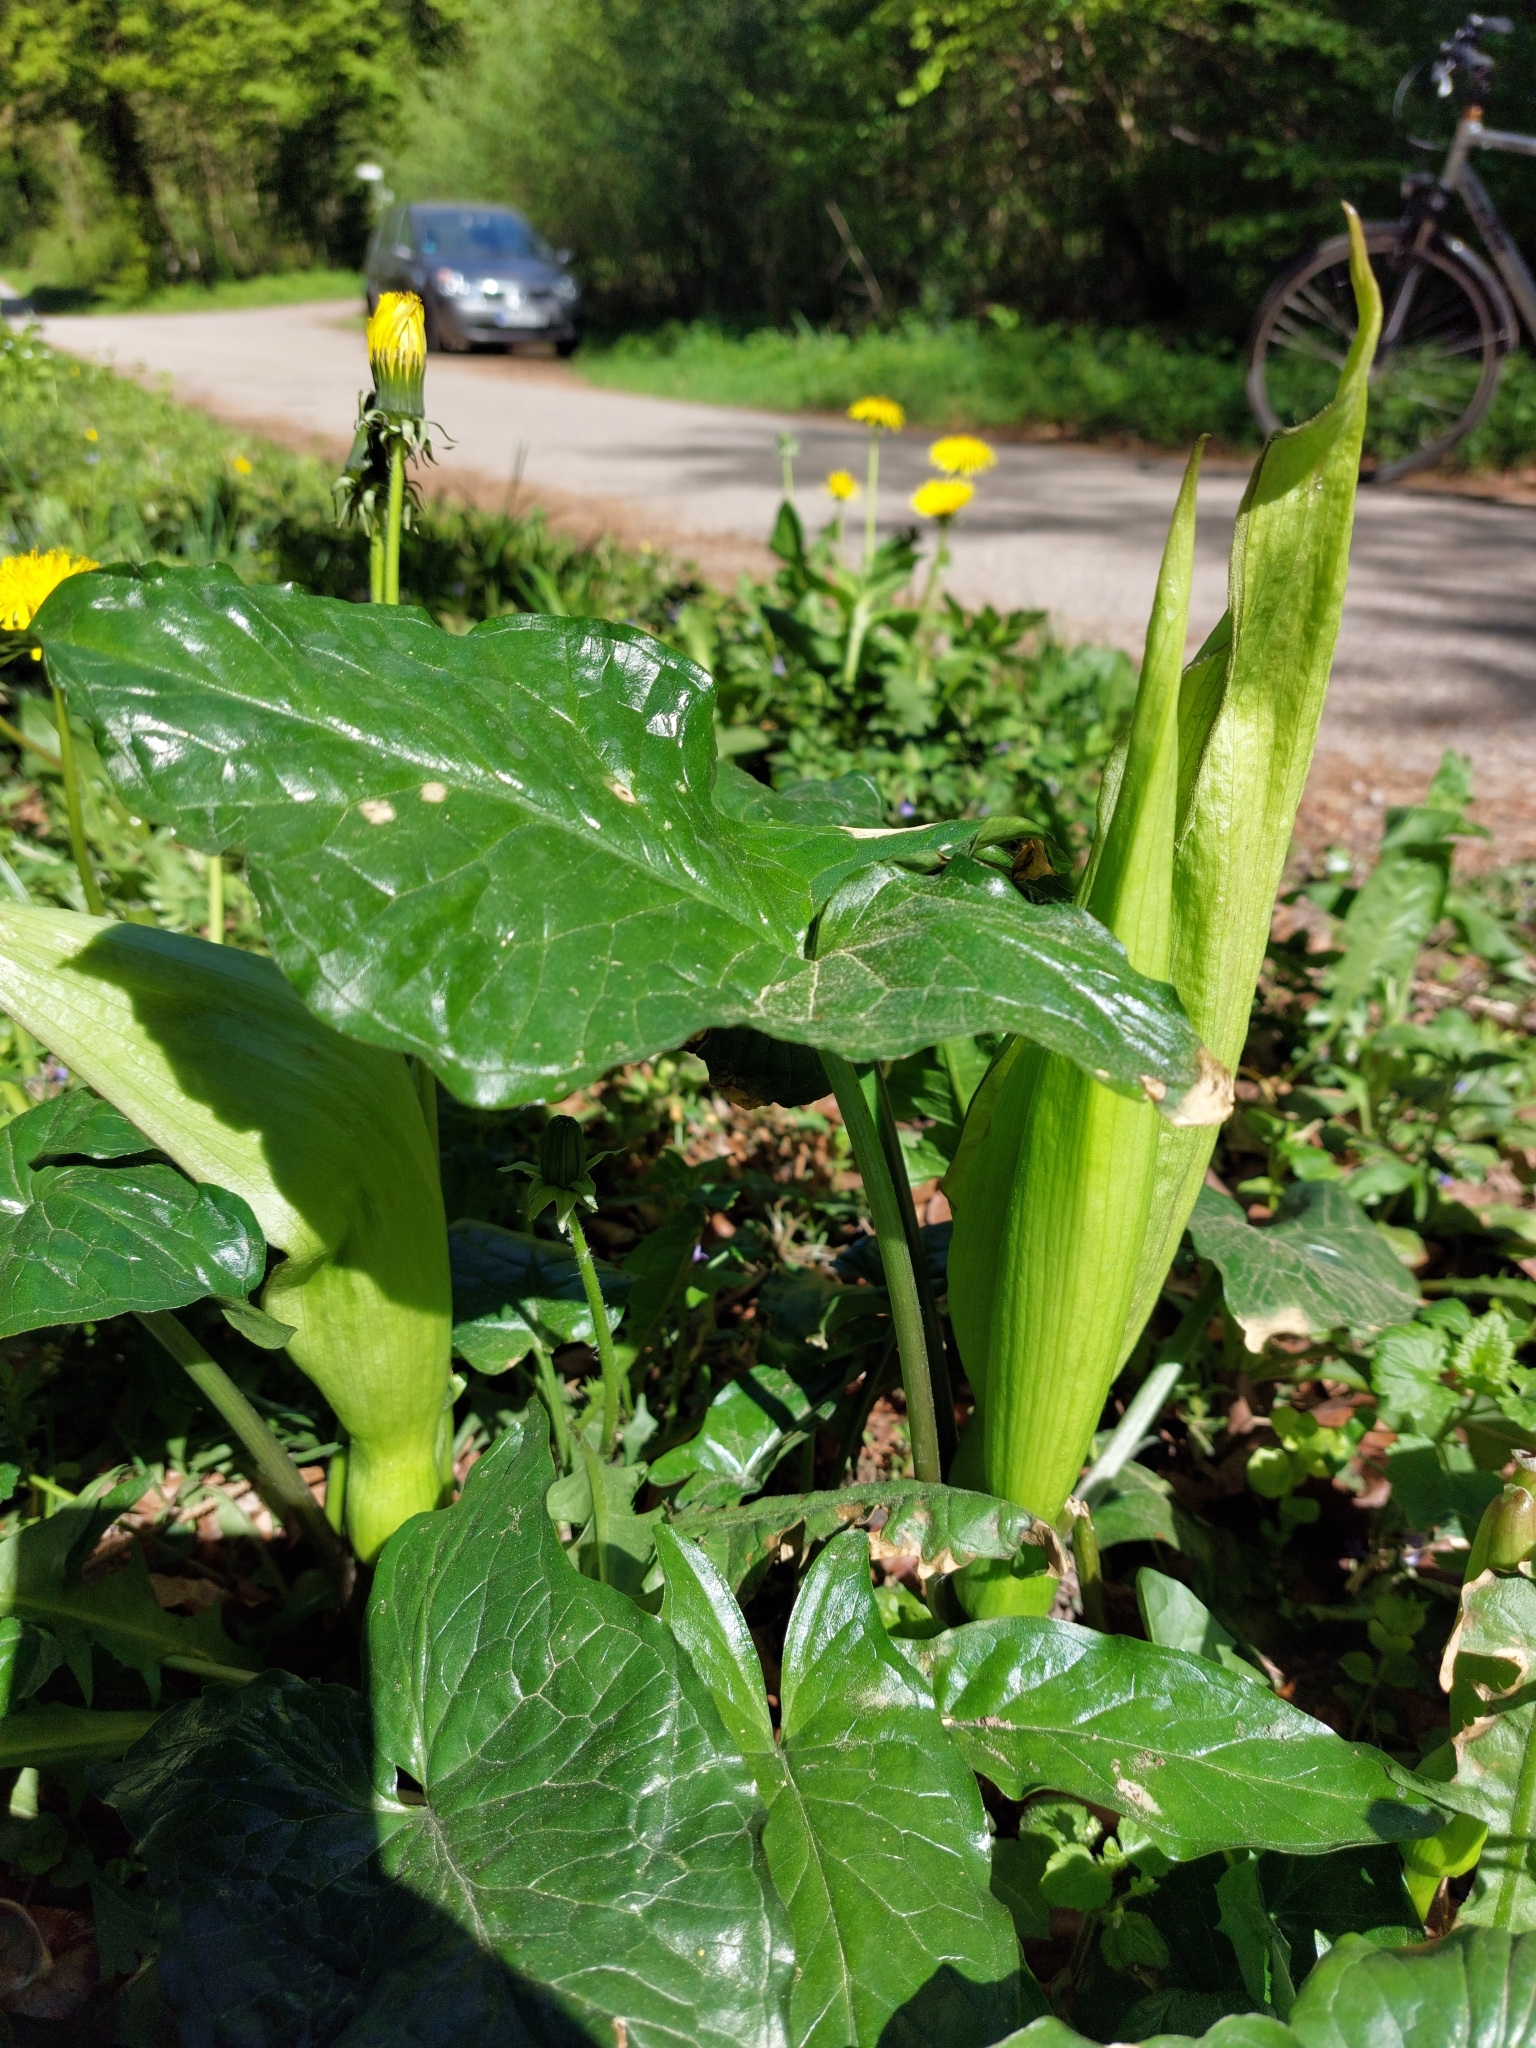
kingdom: Plantae
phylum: Tracheophyta
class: Liliopsida
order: Alismatales
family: Araceae
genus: Arum
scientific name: Arum maculatum
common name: Lords-and-ladies
